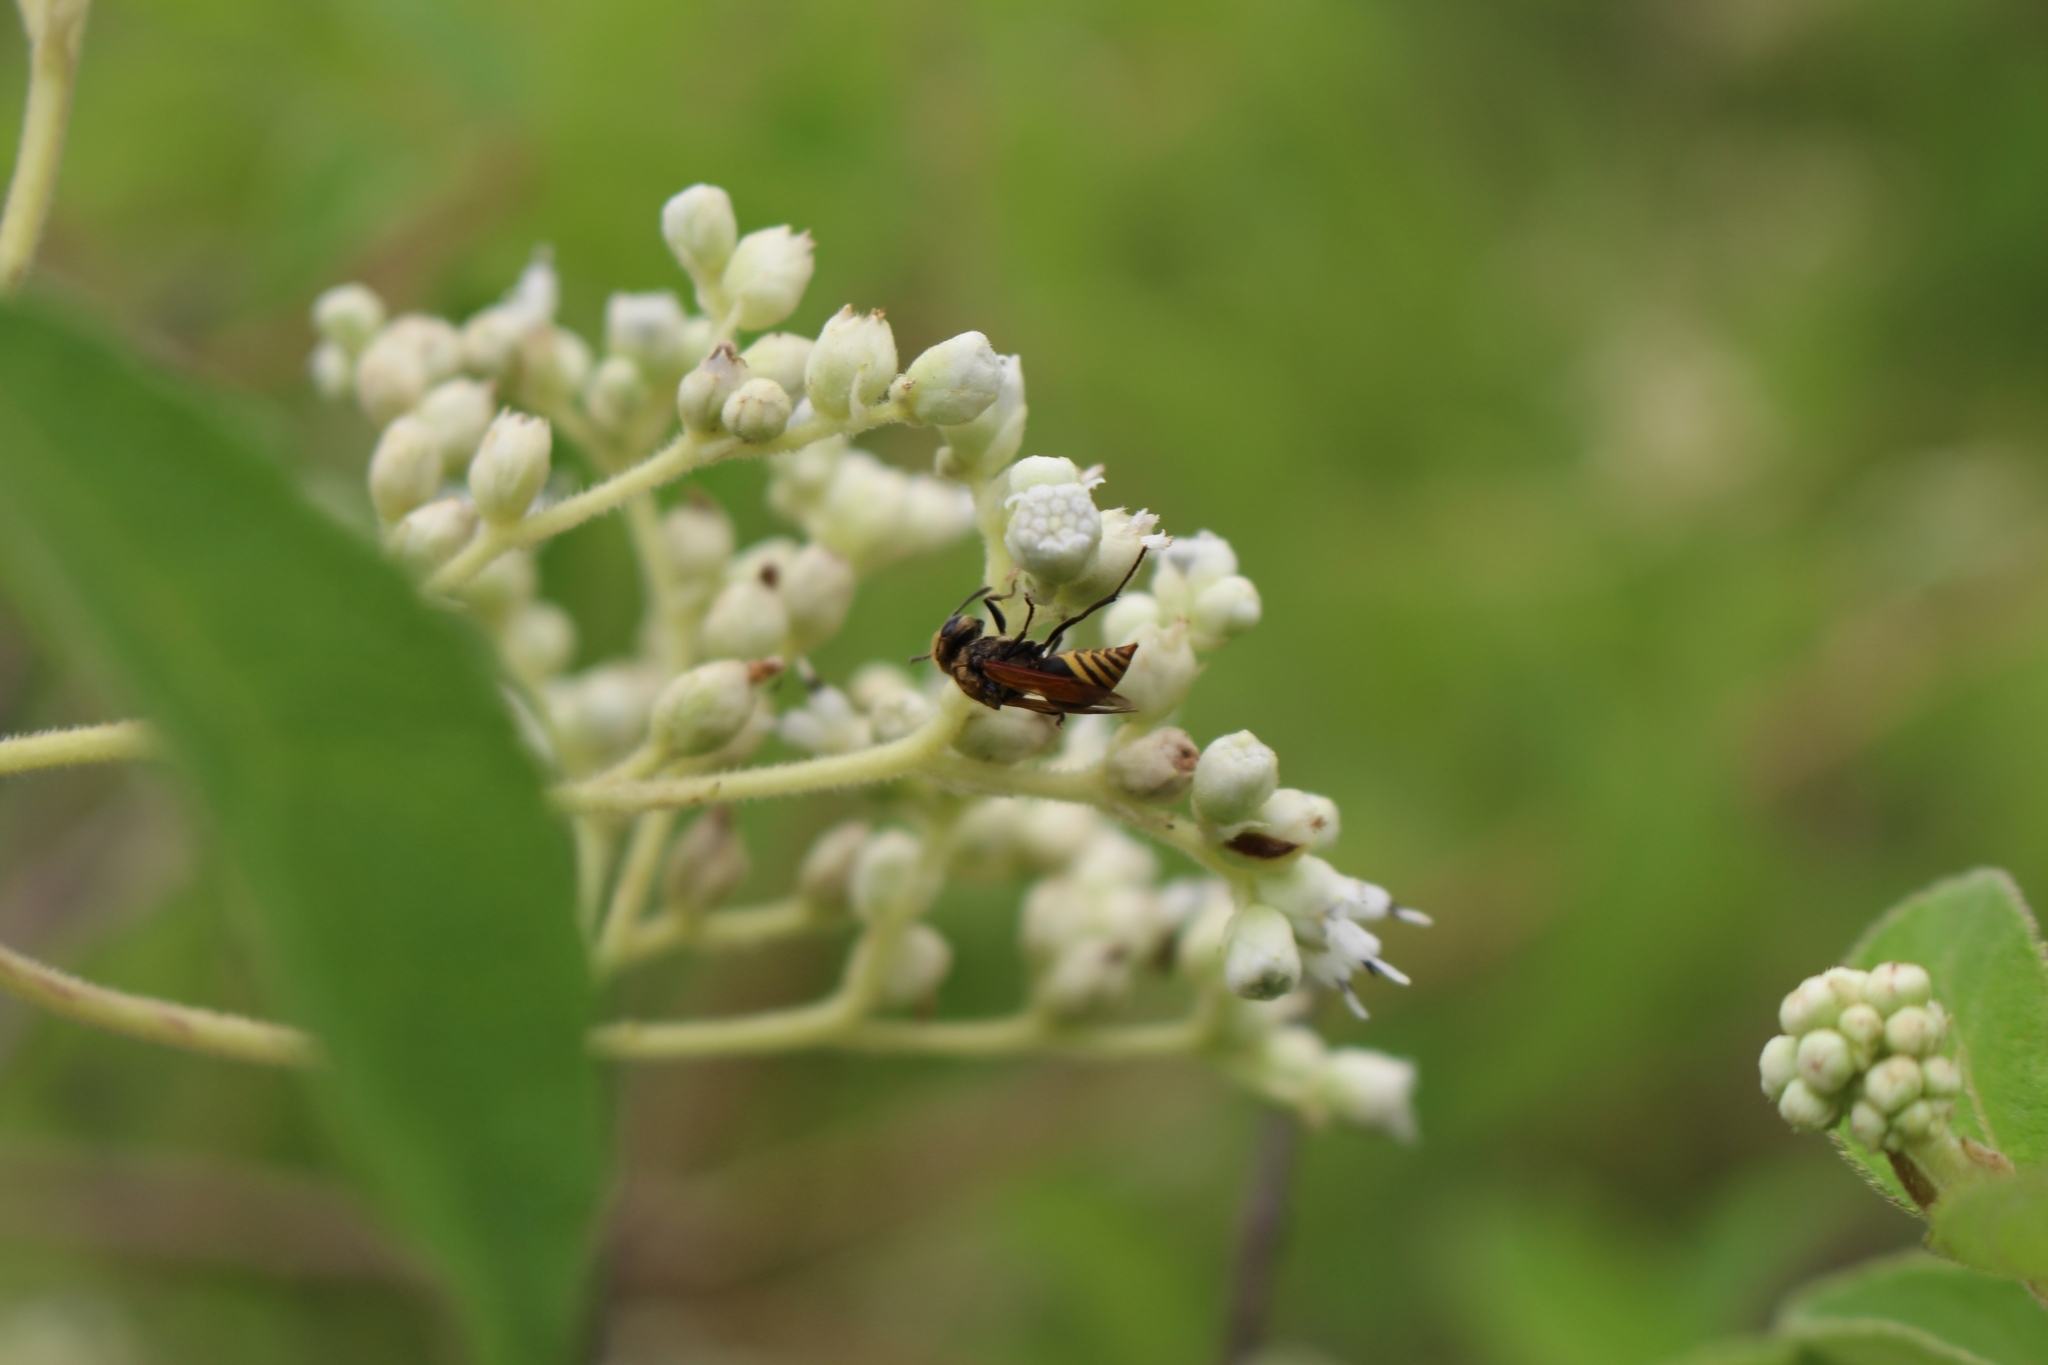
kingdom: Animalia
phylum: Arthropoda
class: Insecta
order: Hymenoptera
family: Vespidae
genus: Brachygastra
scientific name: Brachygastra
